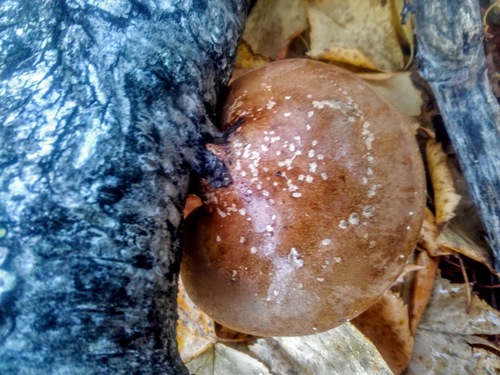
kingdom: Fungi
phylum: Basidiomycota
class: Agaricomycetes
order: Polyporales
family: Fomitopsidaceae
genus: Fomitopsis
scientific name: Fomitopsis betulina
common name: Birch polypore
